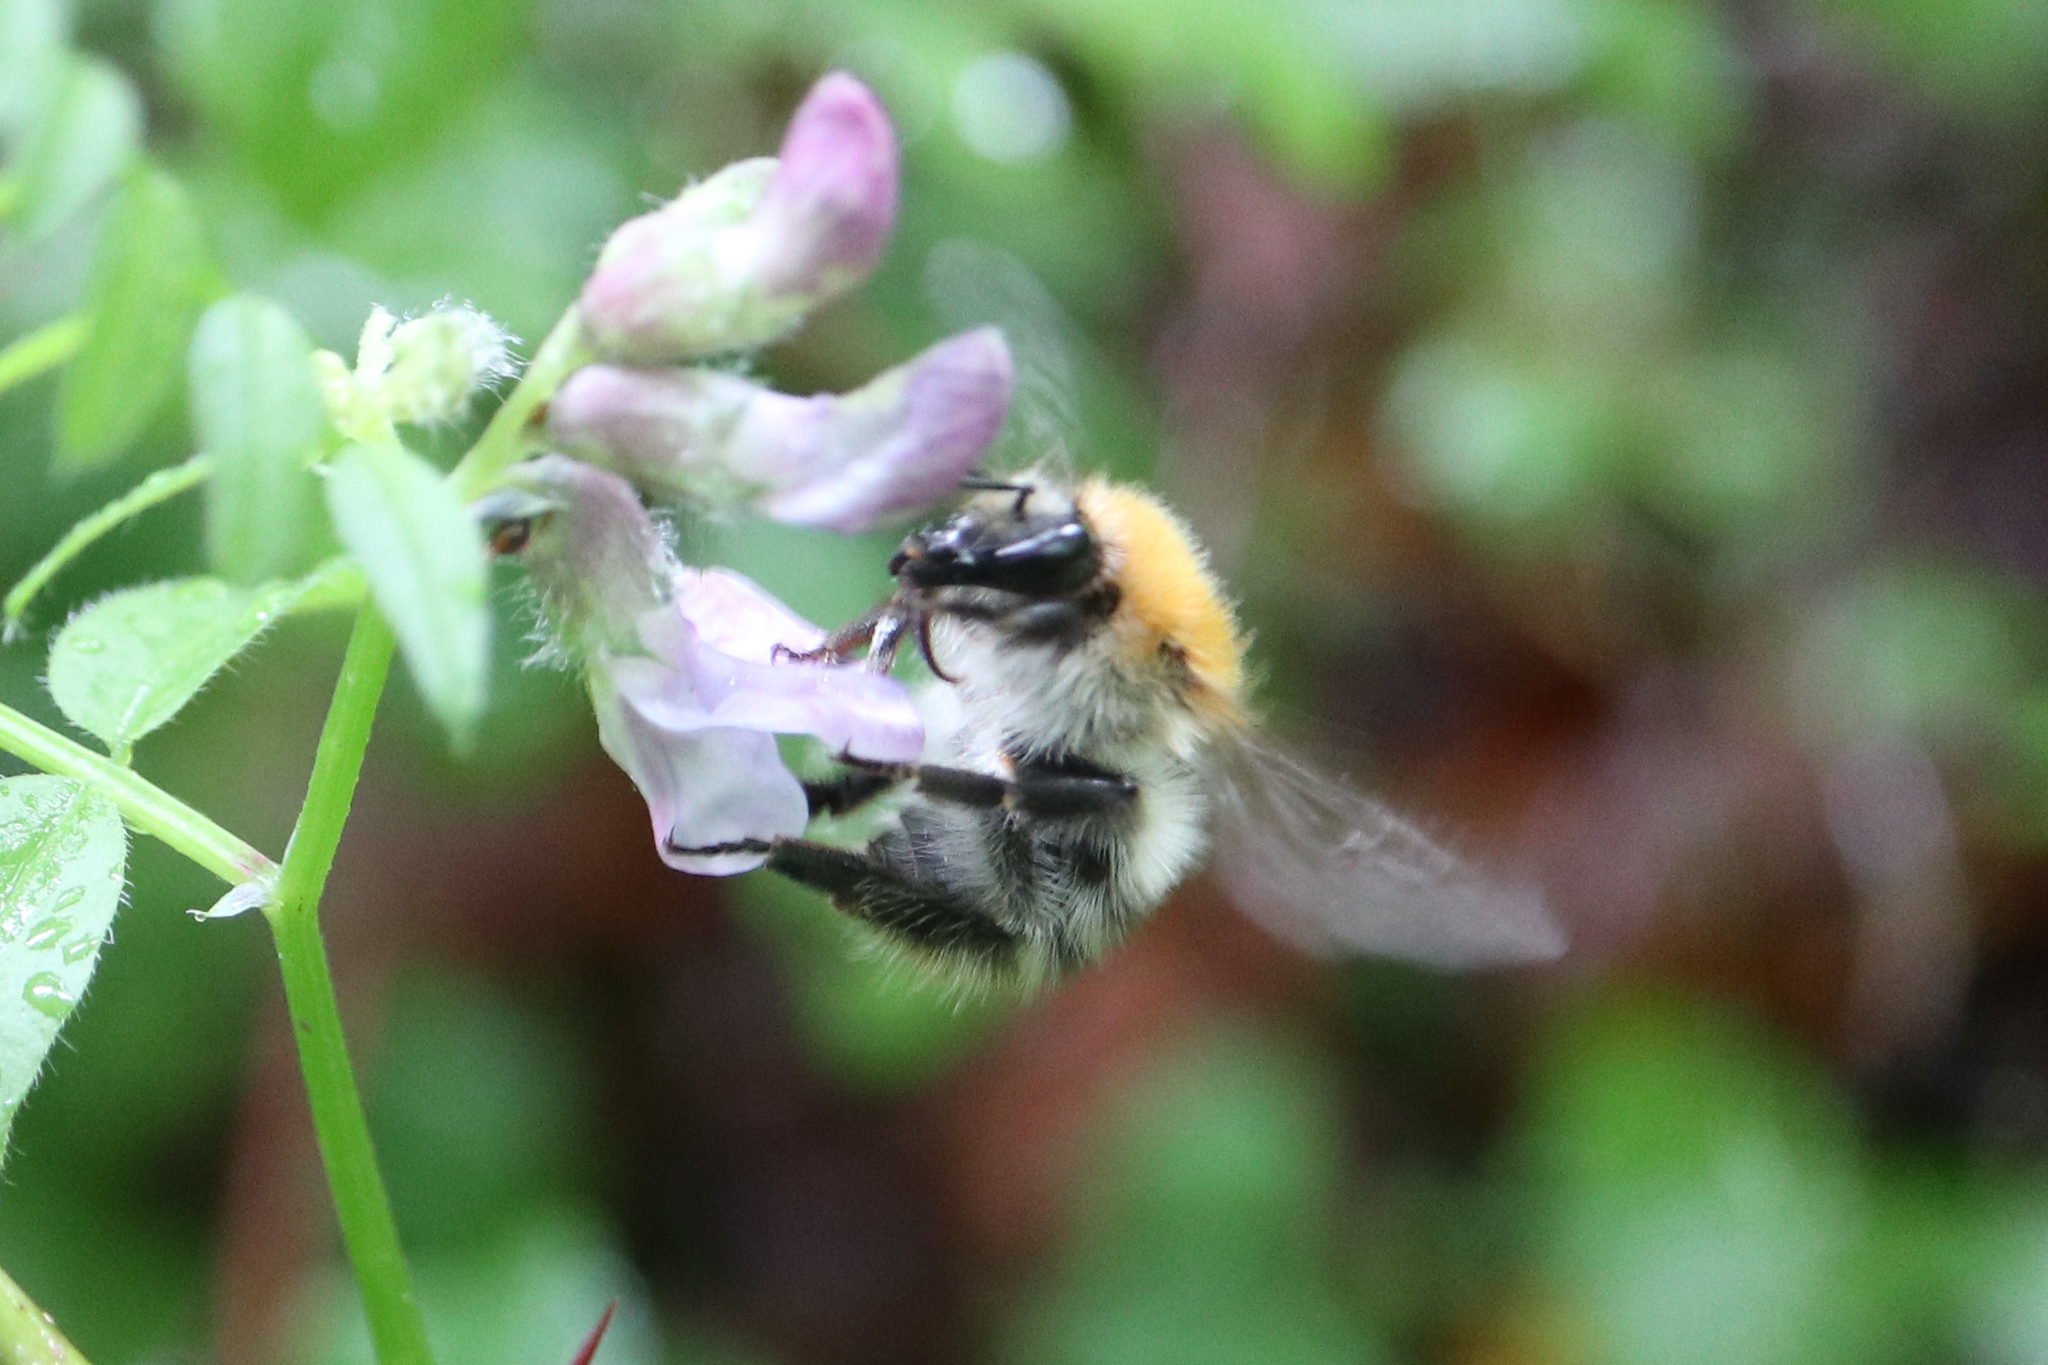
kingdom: Animalia
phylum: Arthropoda
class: Insecta
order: Hymenoptera
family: Apidae
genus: Bombus
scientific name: Bombus pascuorum
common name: Common carder bee
